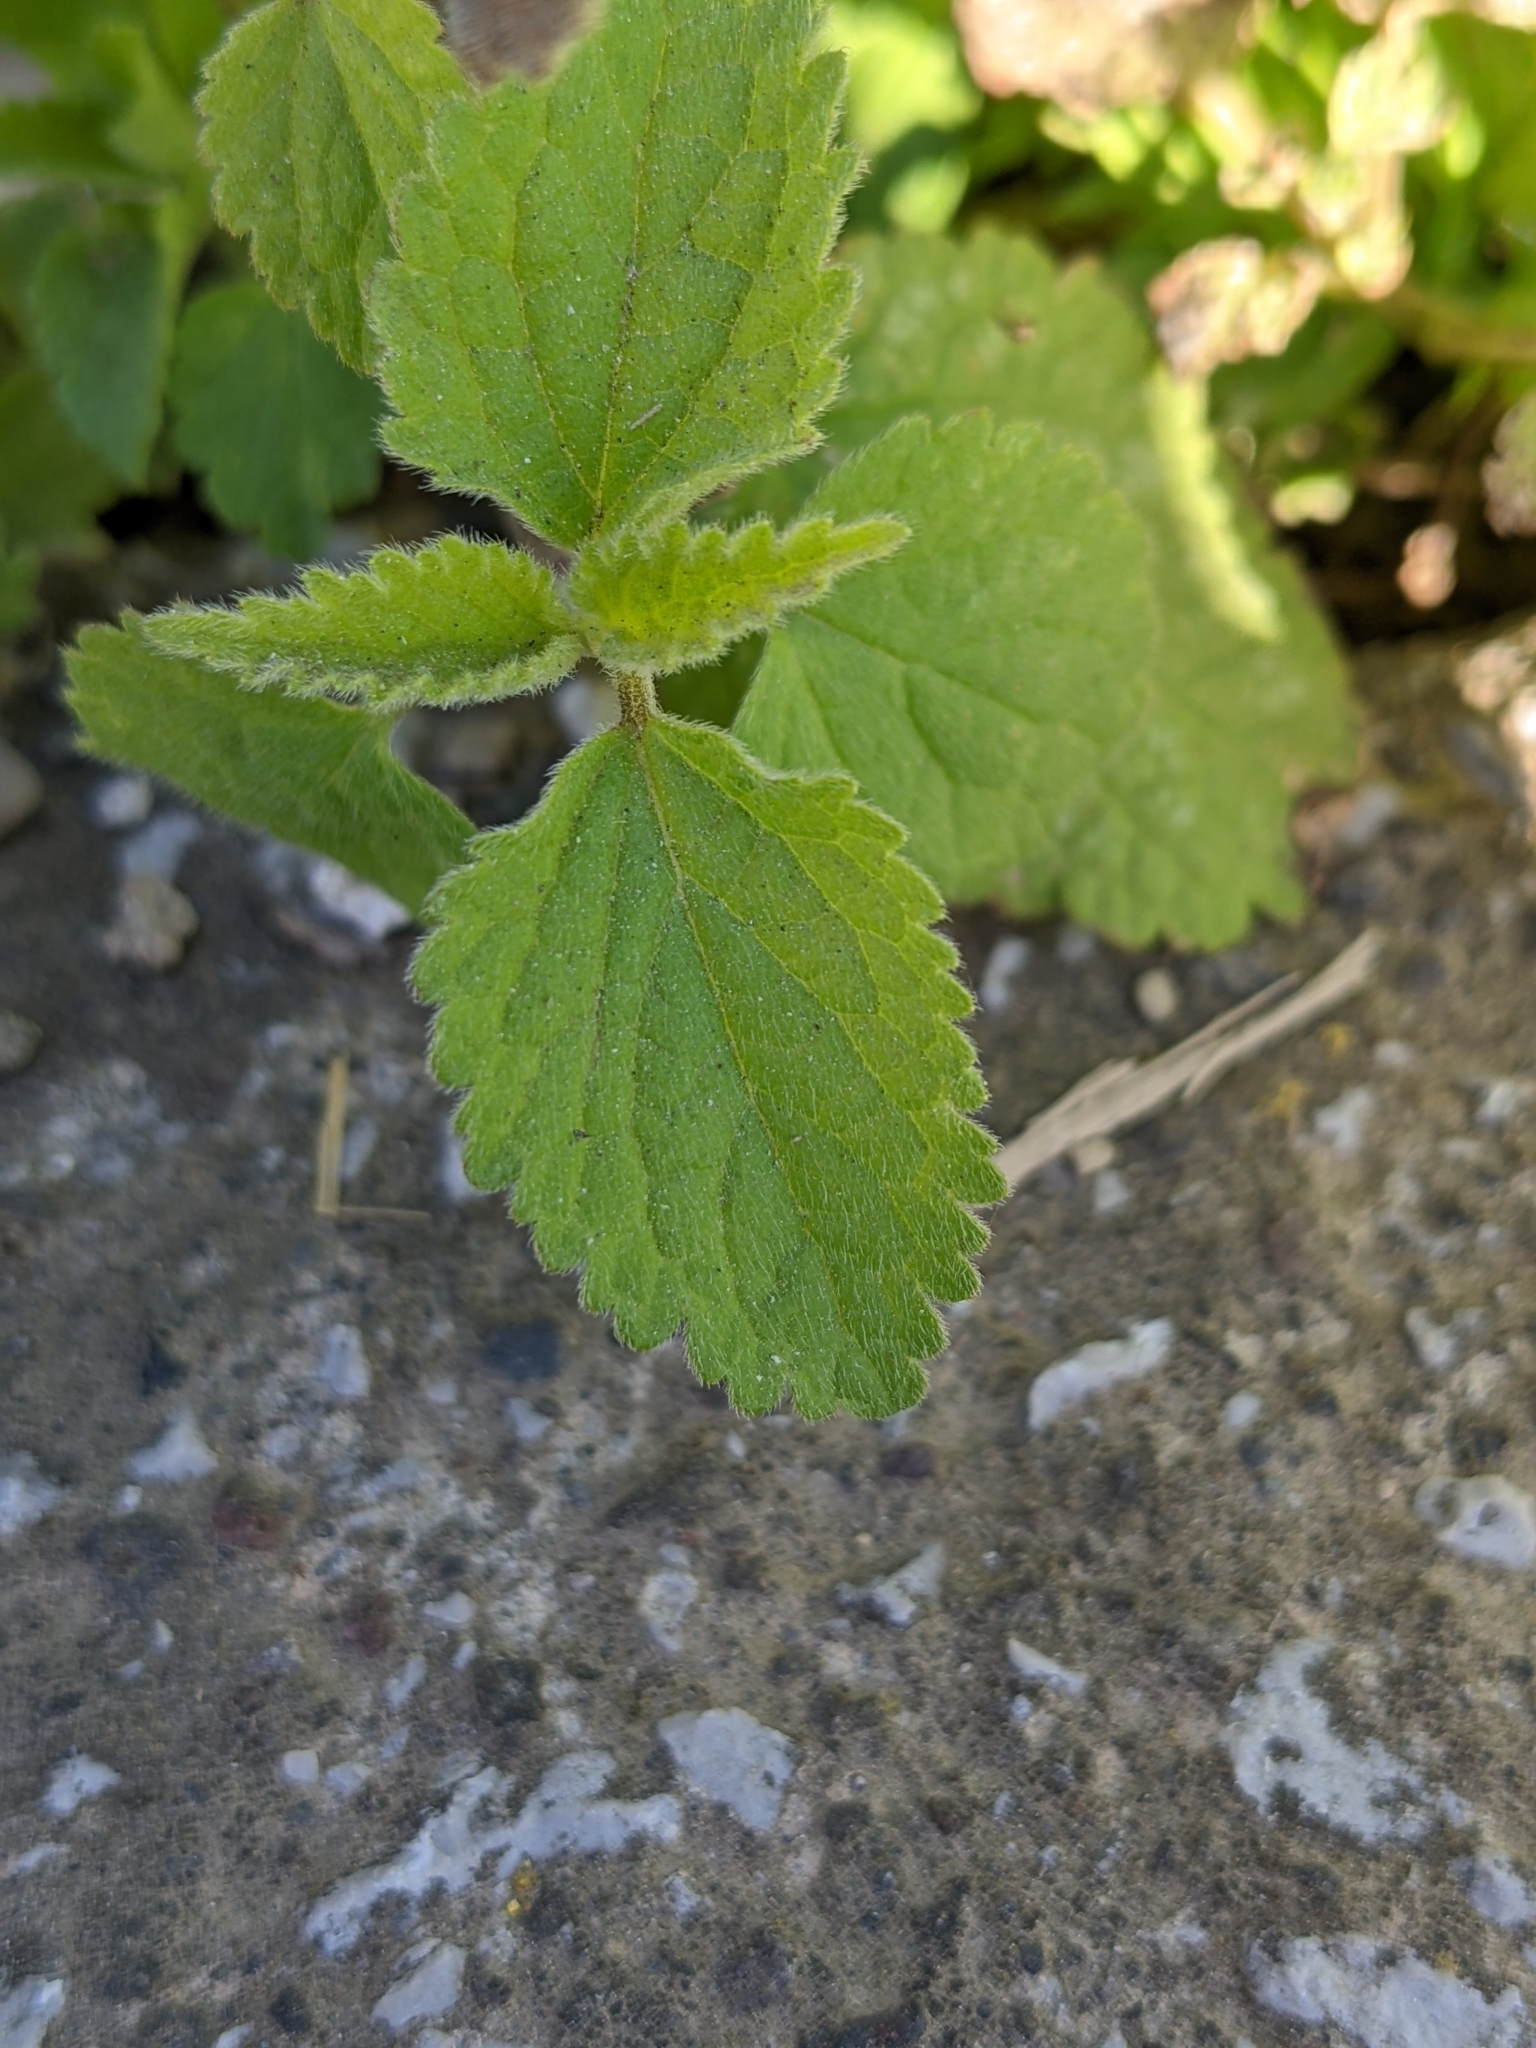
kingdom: Plantae
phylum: Tracheophyta
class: Magnoliopsida
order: Lamiales
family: Lamiaceae
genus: Lamium
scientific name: Lamium flexuosum
